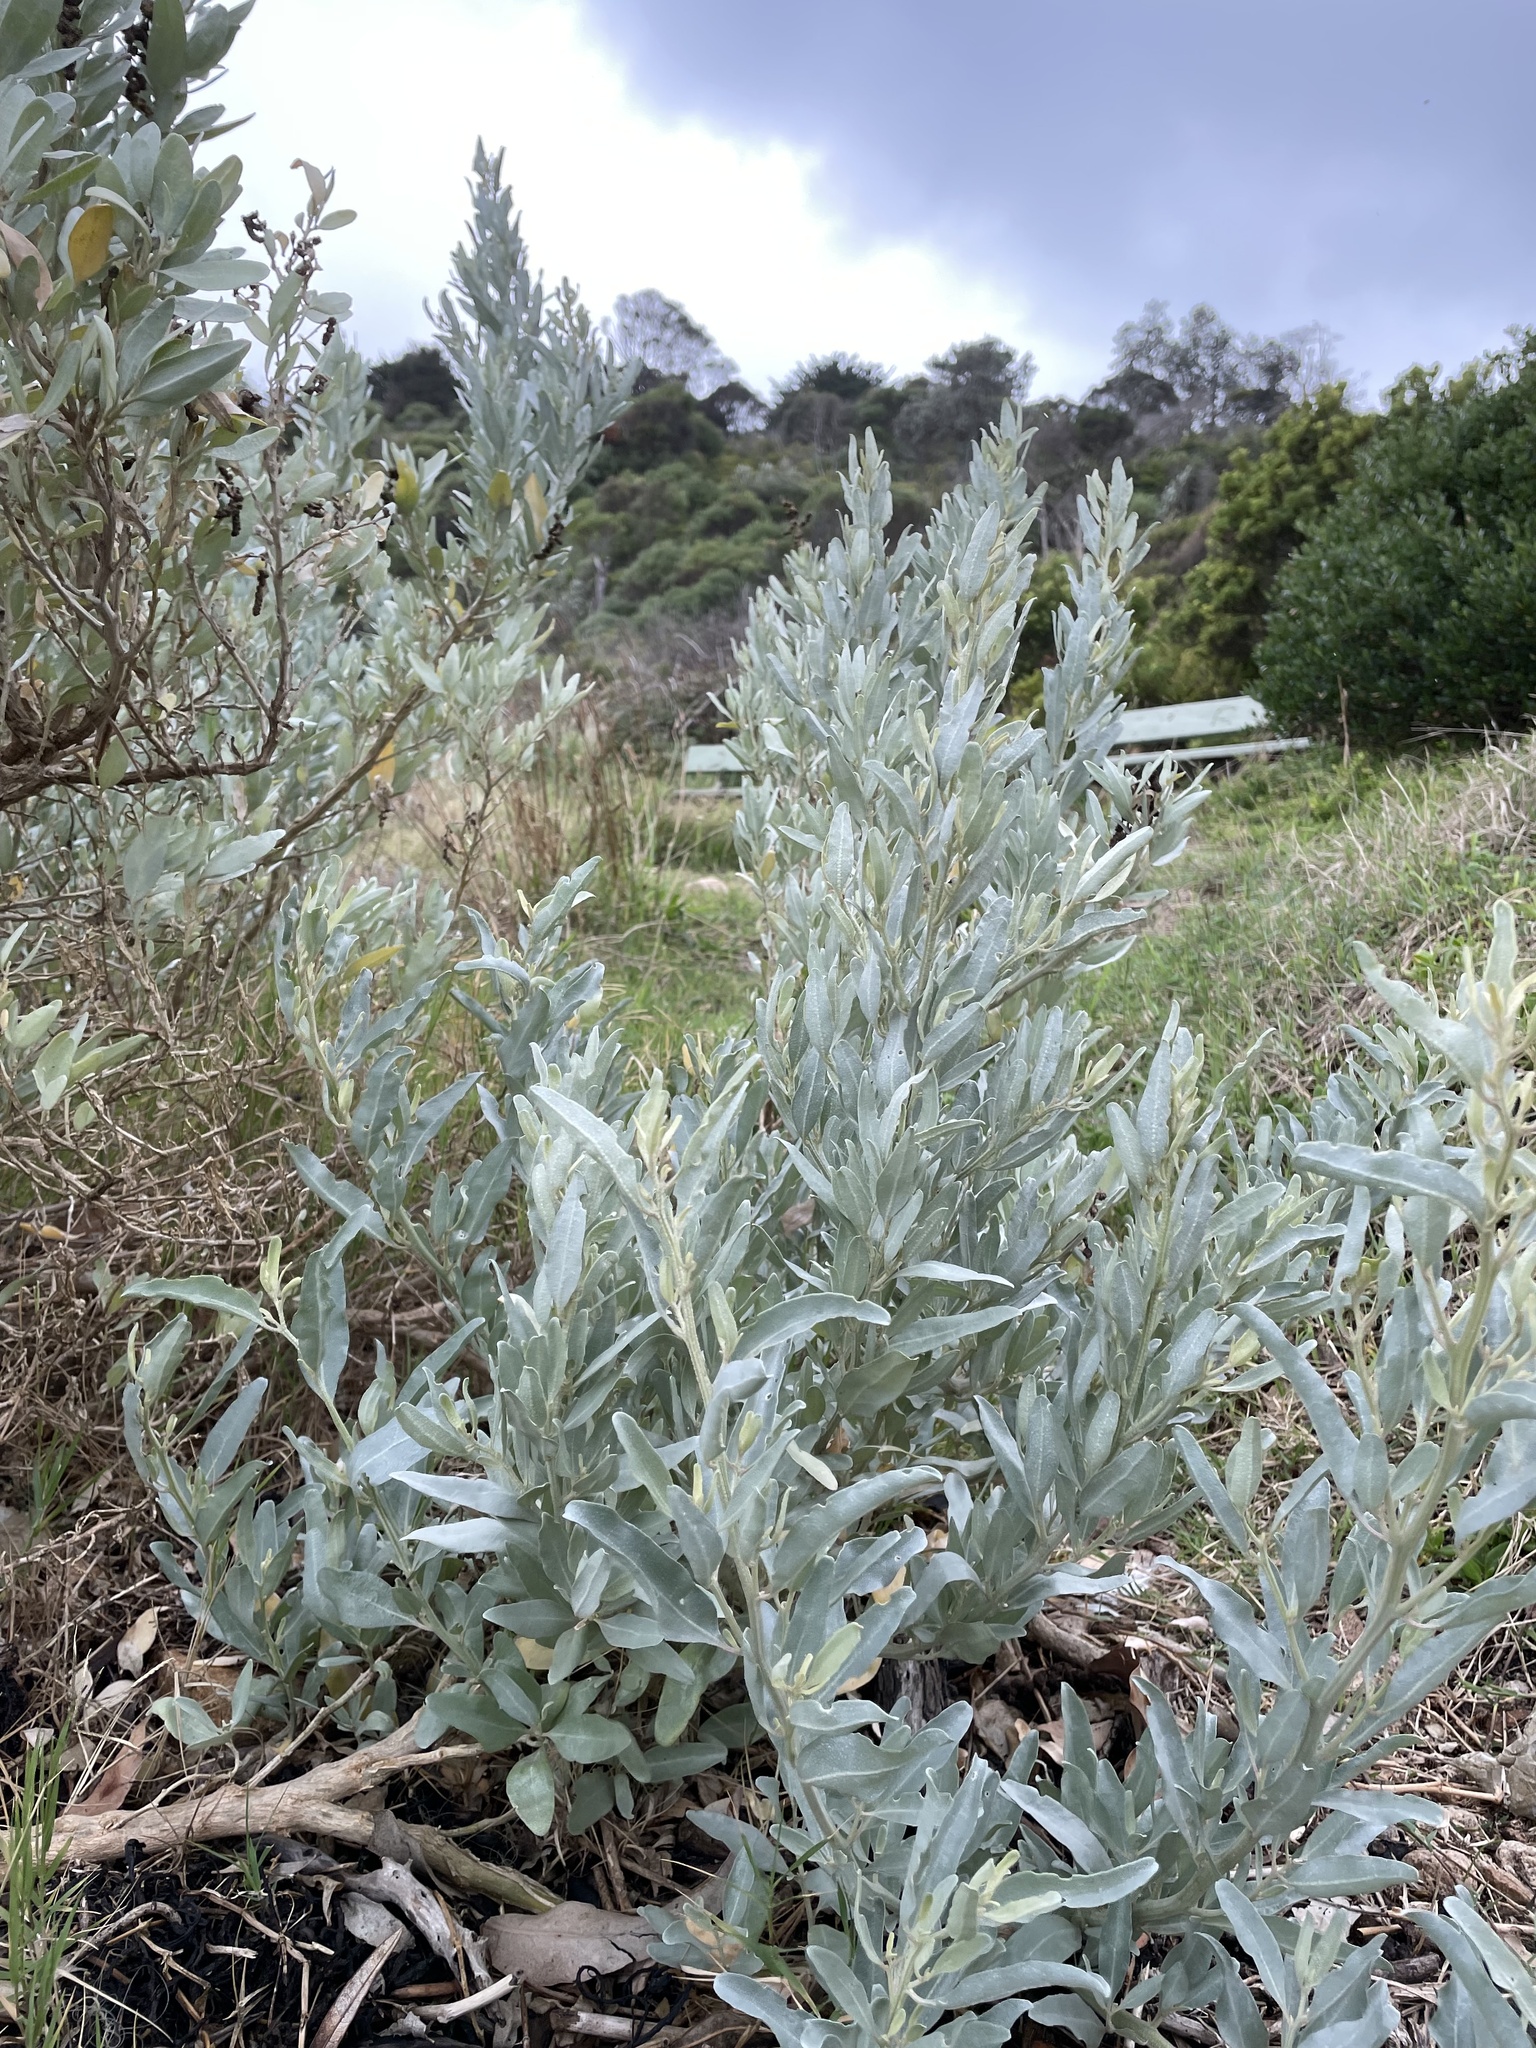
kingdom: Plantae
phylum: Tracheophyta
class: Magnoliopsida
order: Caryophyllales
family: Amaranthaceae
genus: Atriplex
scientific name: Atriplex cinerea
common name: Grey saltbush
